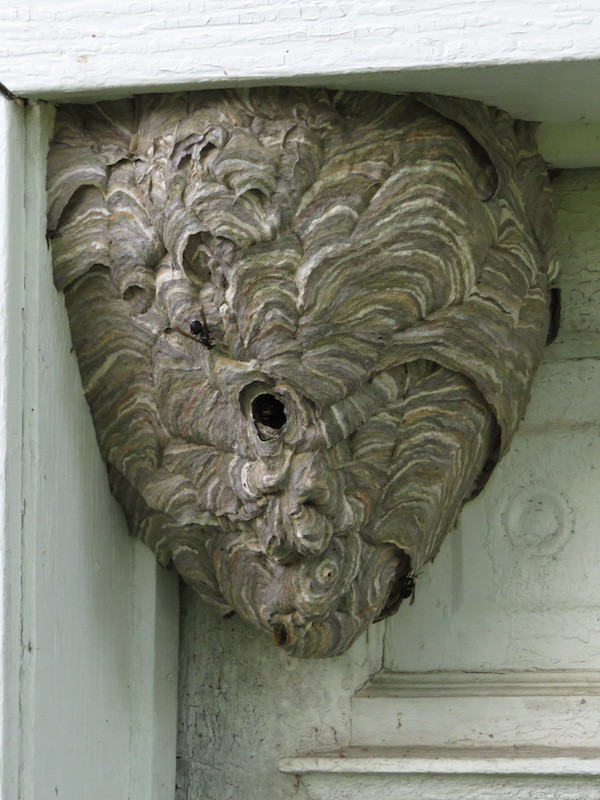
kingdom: Animalia
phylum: Arthropoda
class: Insecta
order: Hymenoptera
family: Vespidae
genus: Dolichovespula
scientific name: Dolichovespula maculata
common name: Bald-faced hornet
